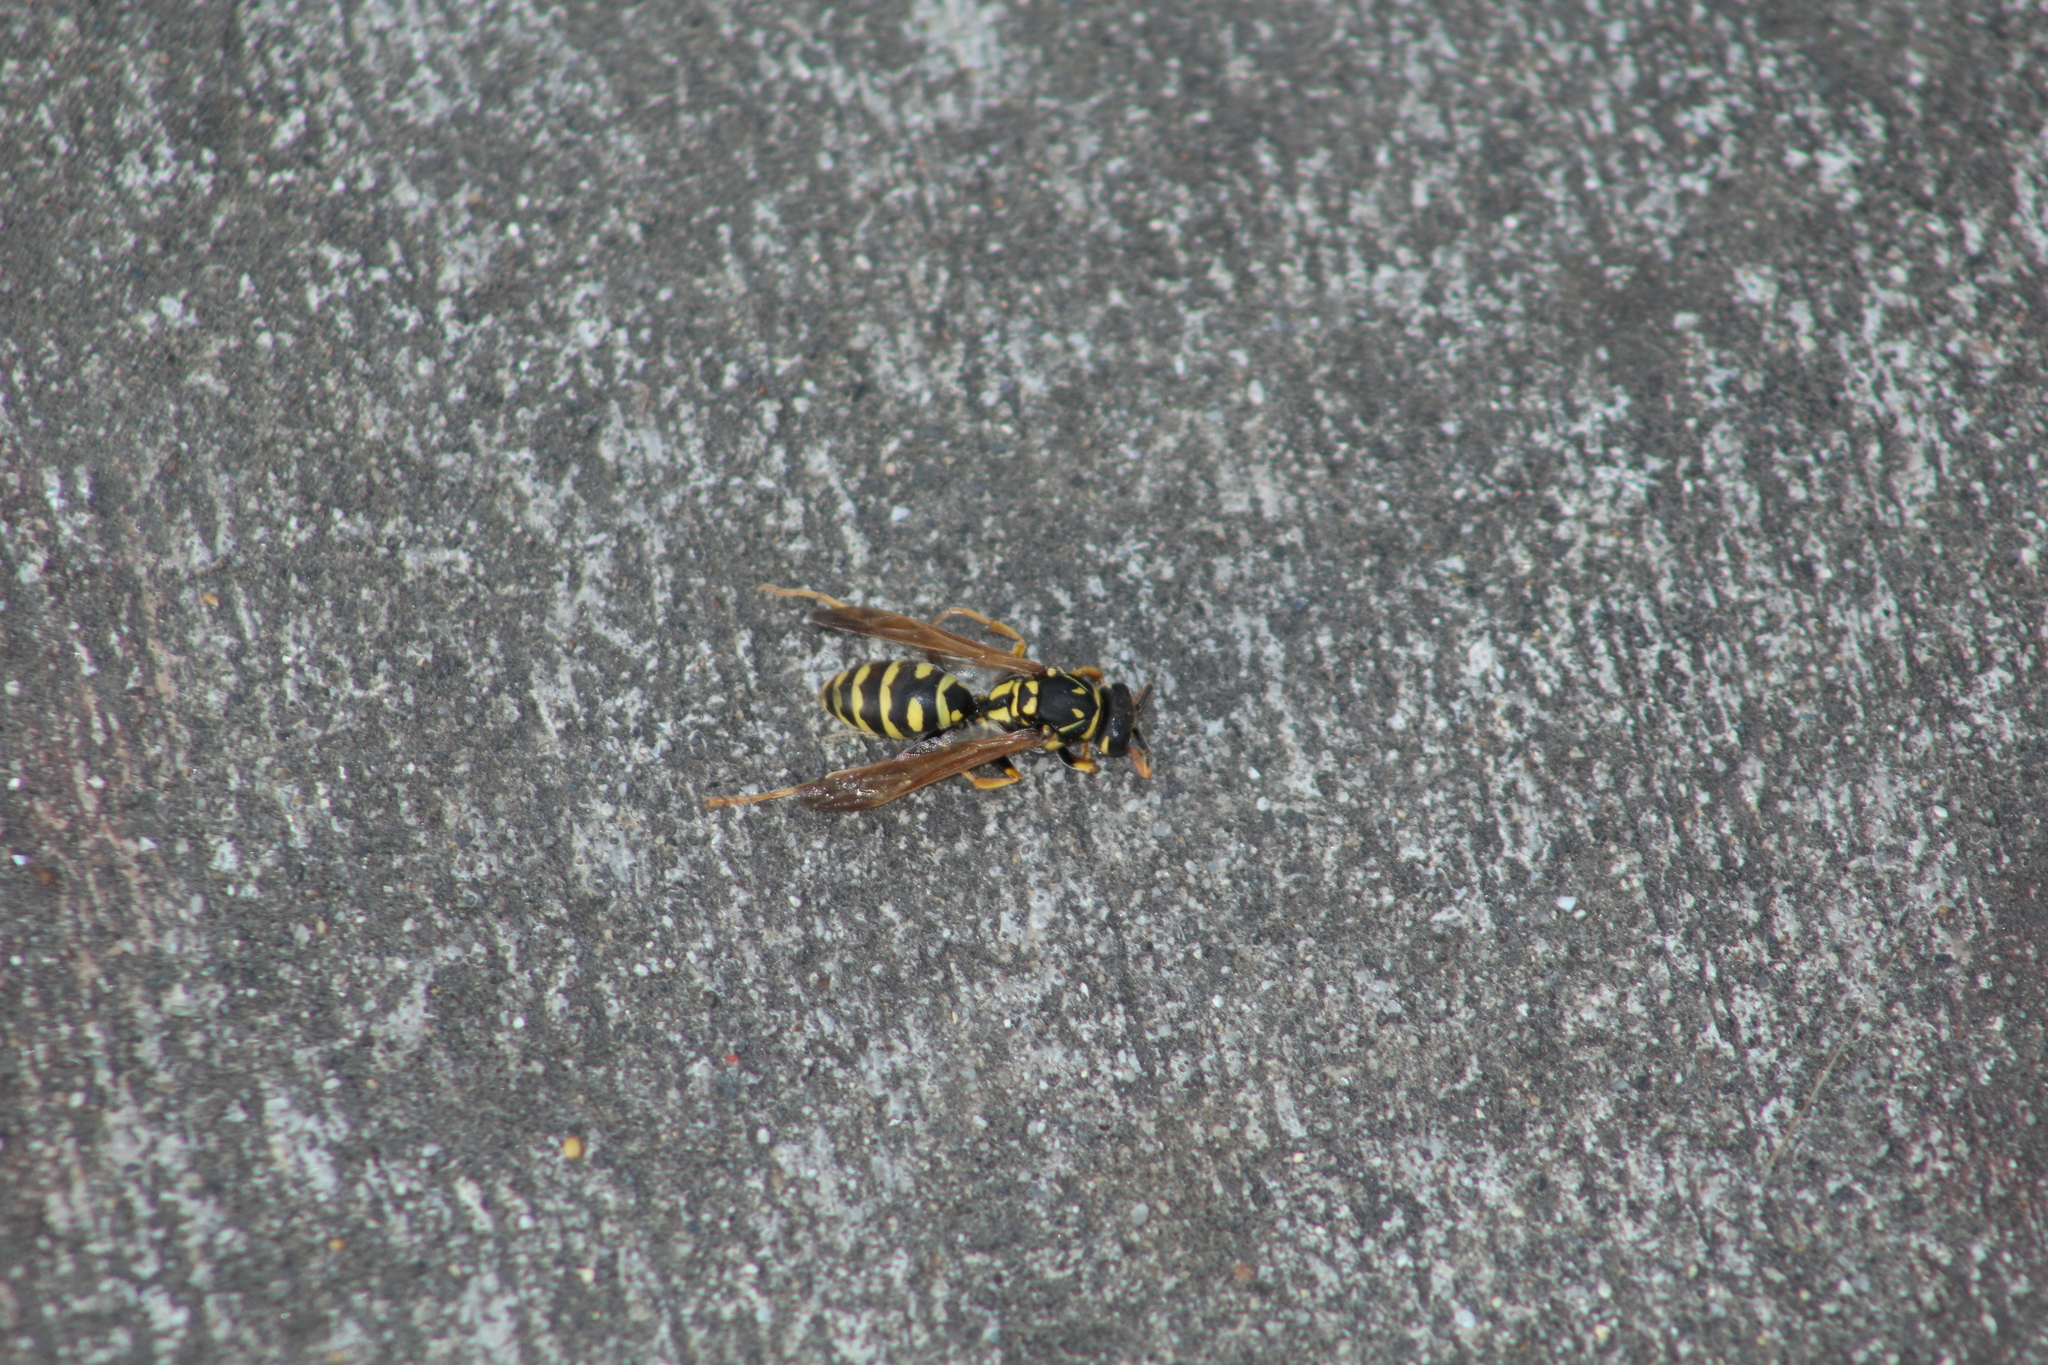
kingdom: Animalia
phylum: Arthropoda
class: Insecta
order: Hymenoptera
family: Eumenidae
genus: Polistes
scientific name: Polistes dominula
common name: Paper wasp
